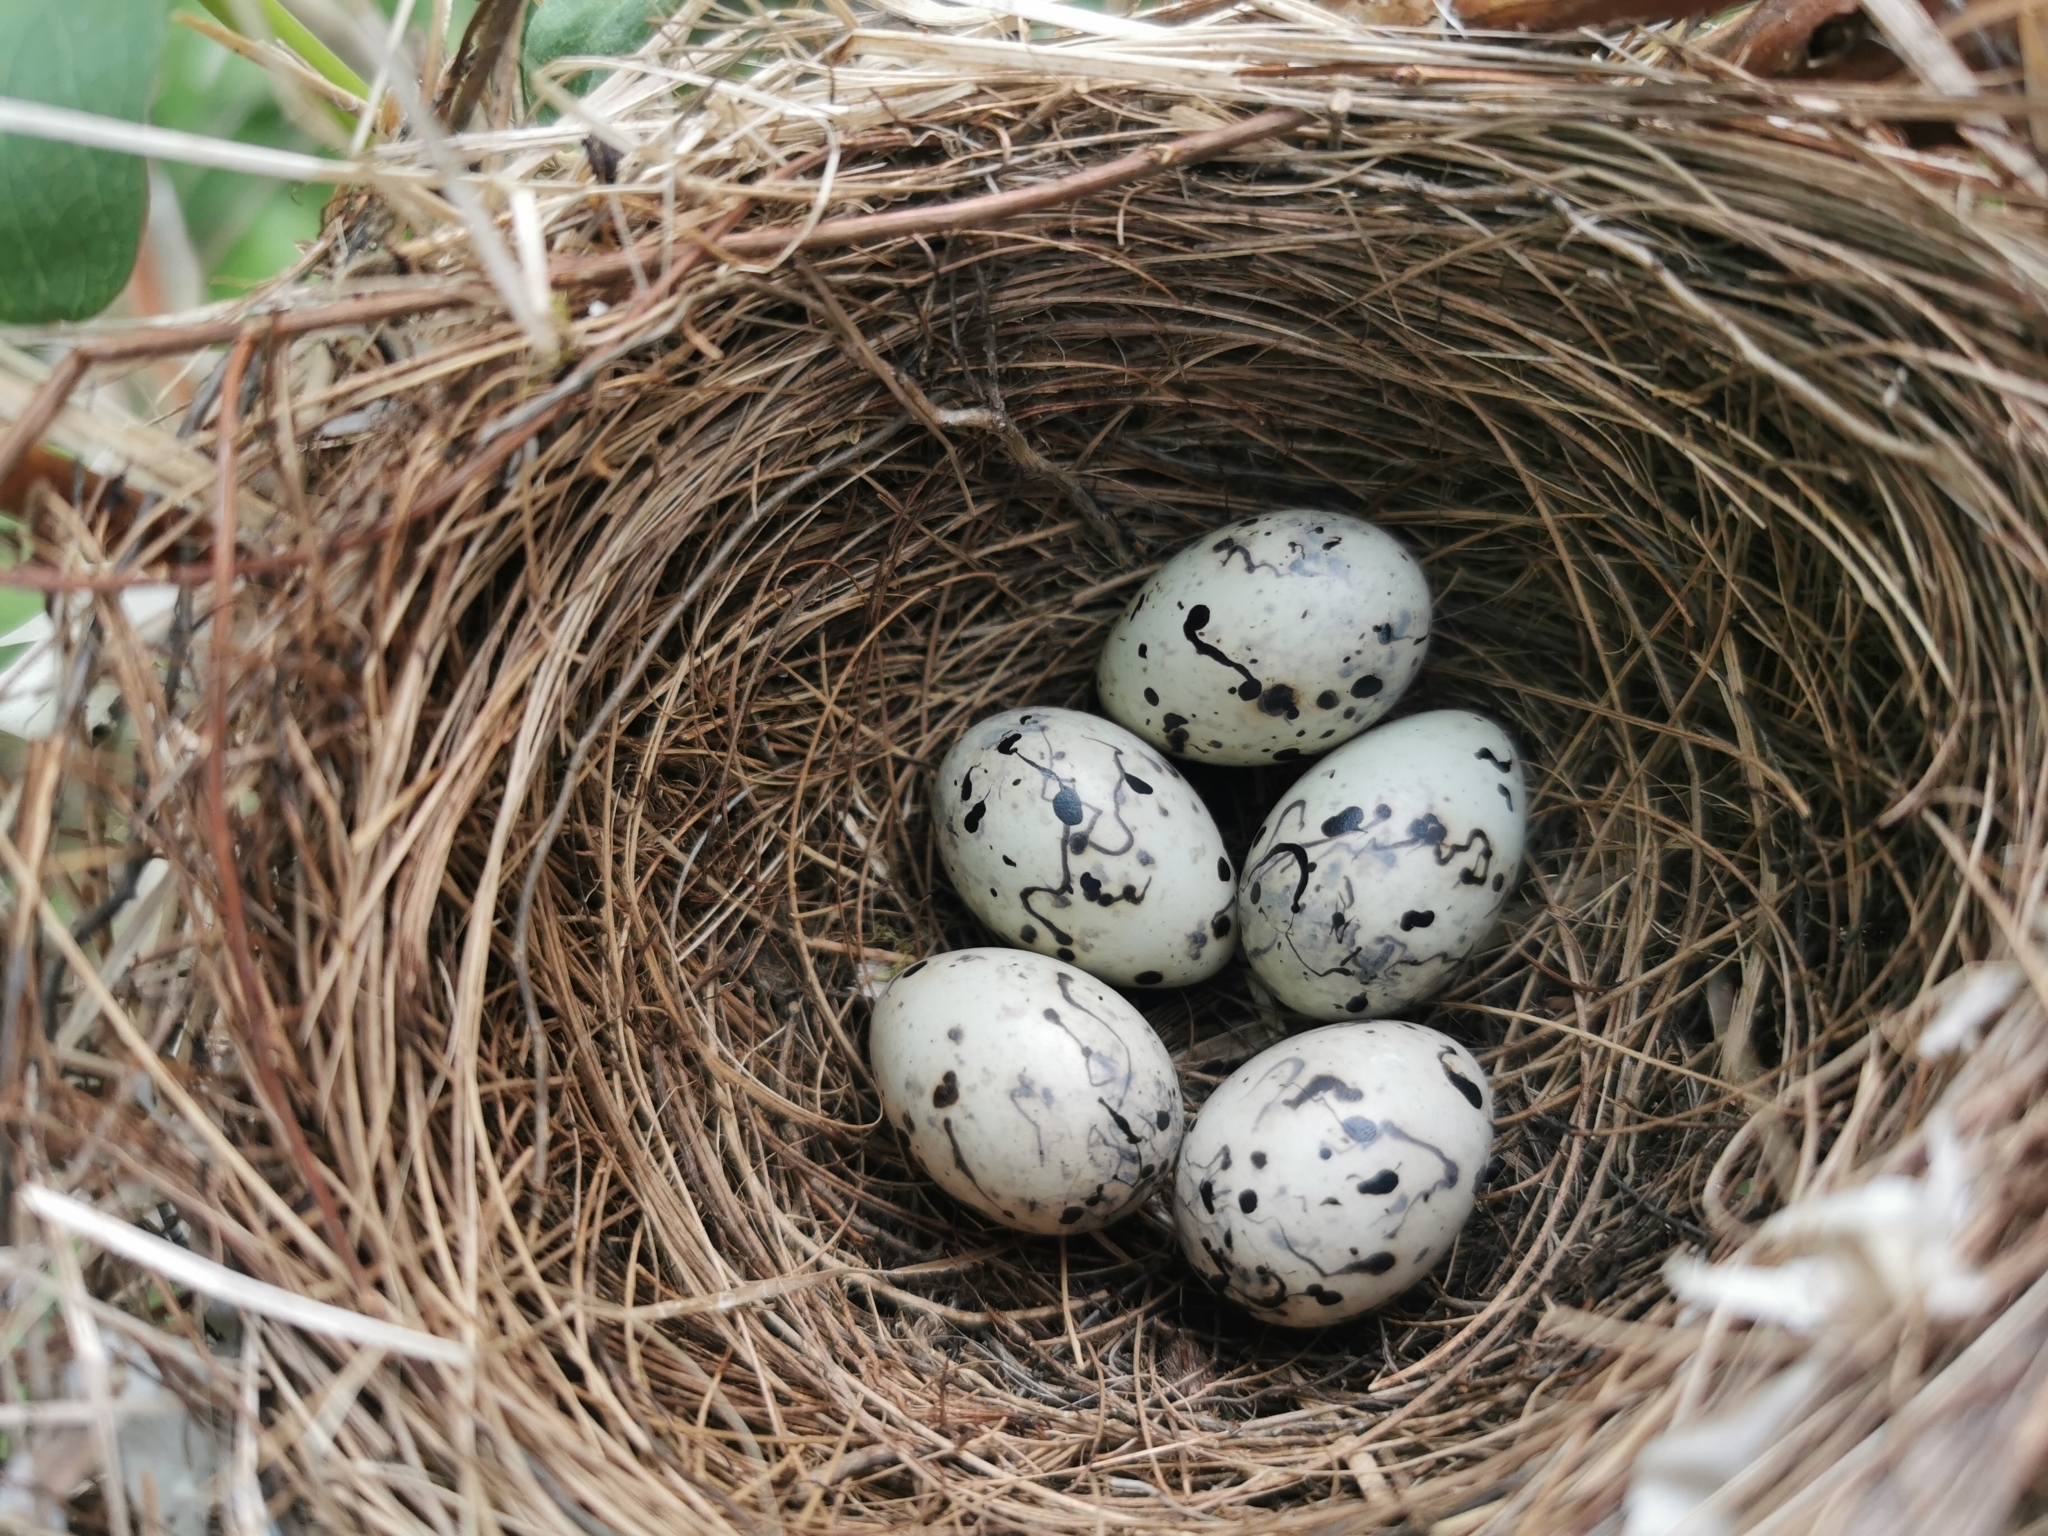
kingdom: Animalia
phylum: Chordata
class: Aves
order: Passeriformes
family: Emberizidae
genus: Emberiza
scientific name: Emberiza variabilis
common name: Gray bunting
